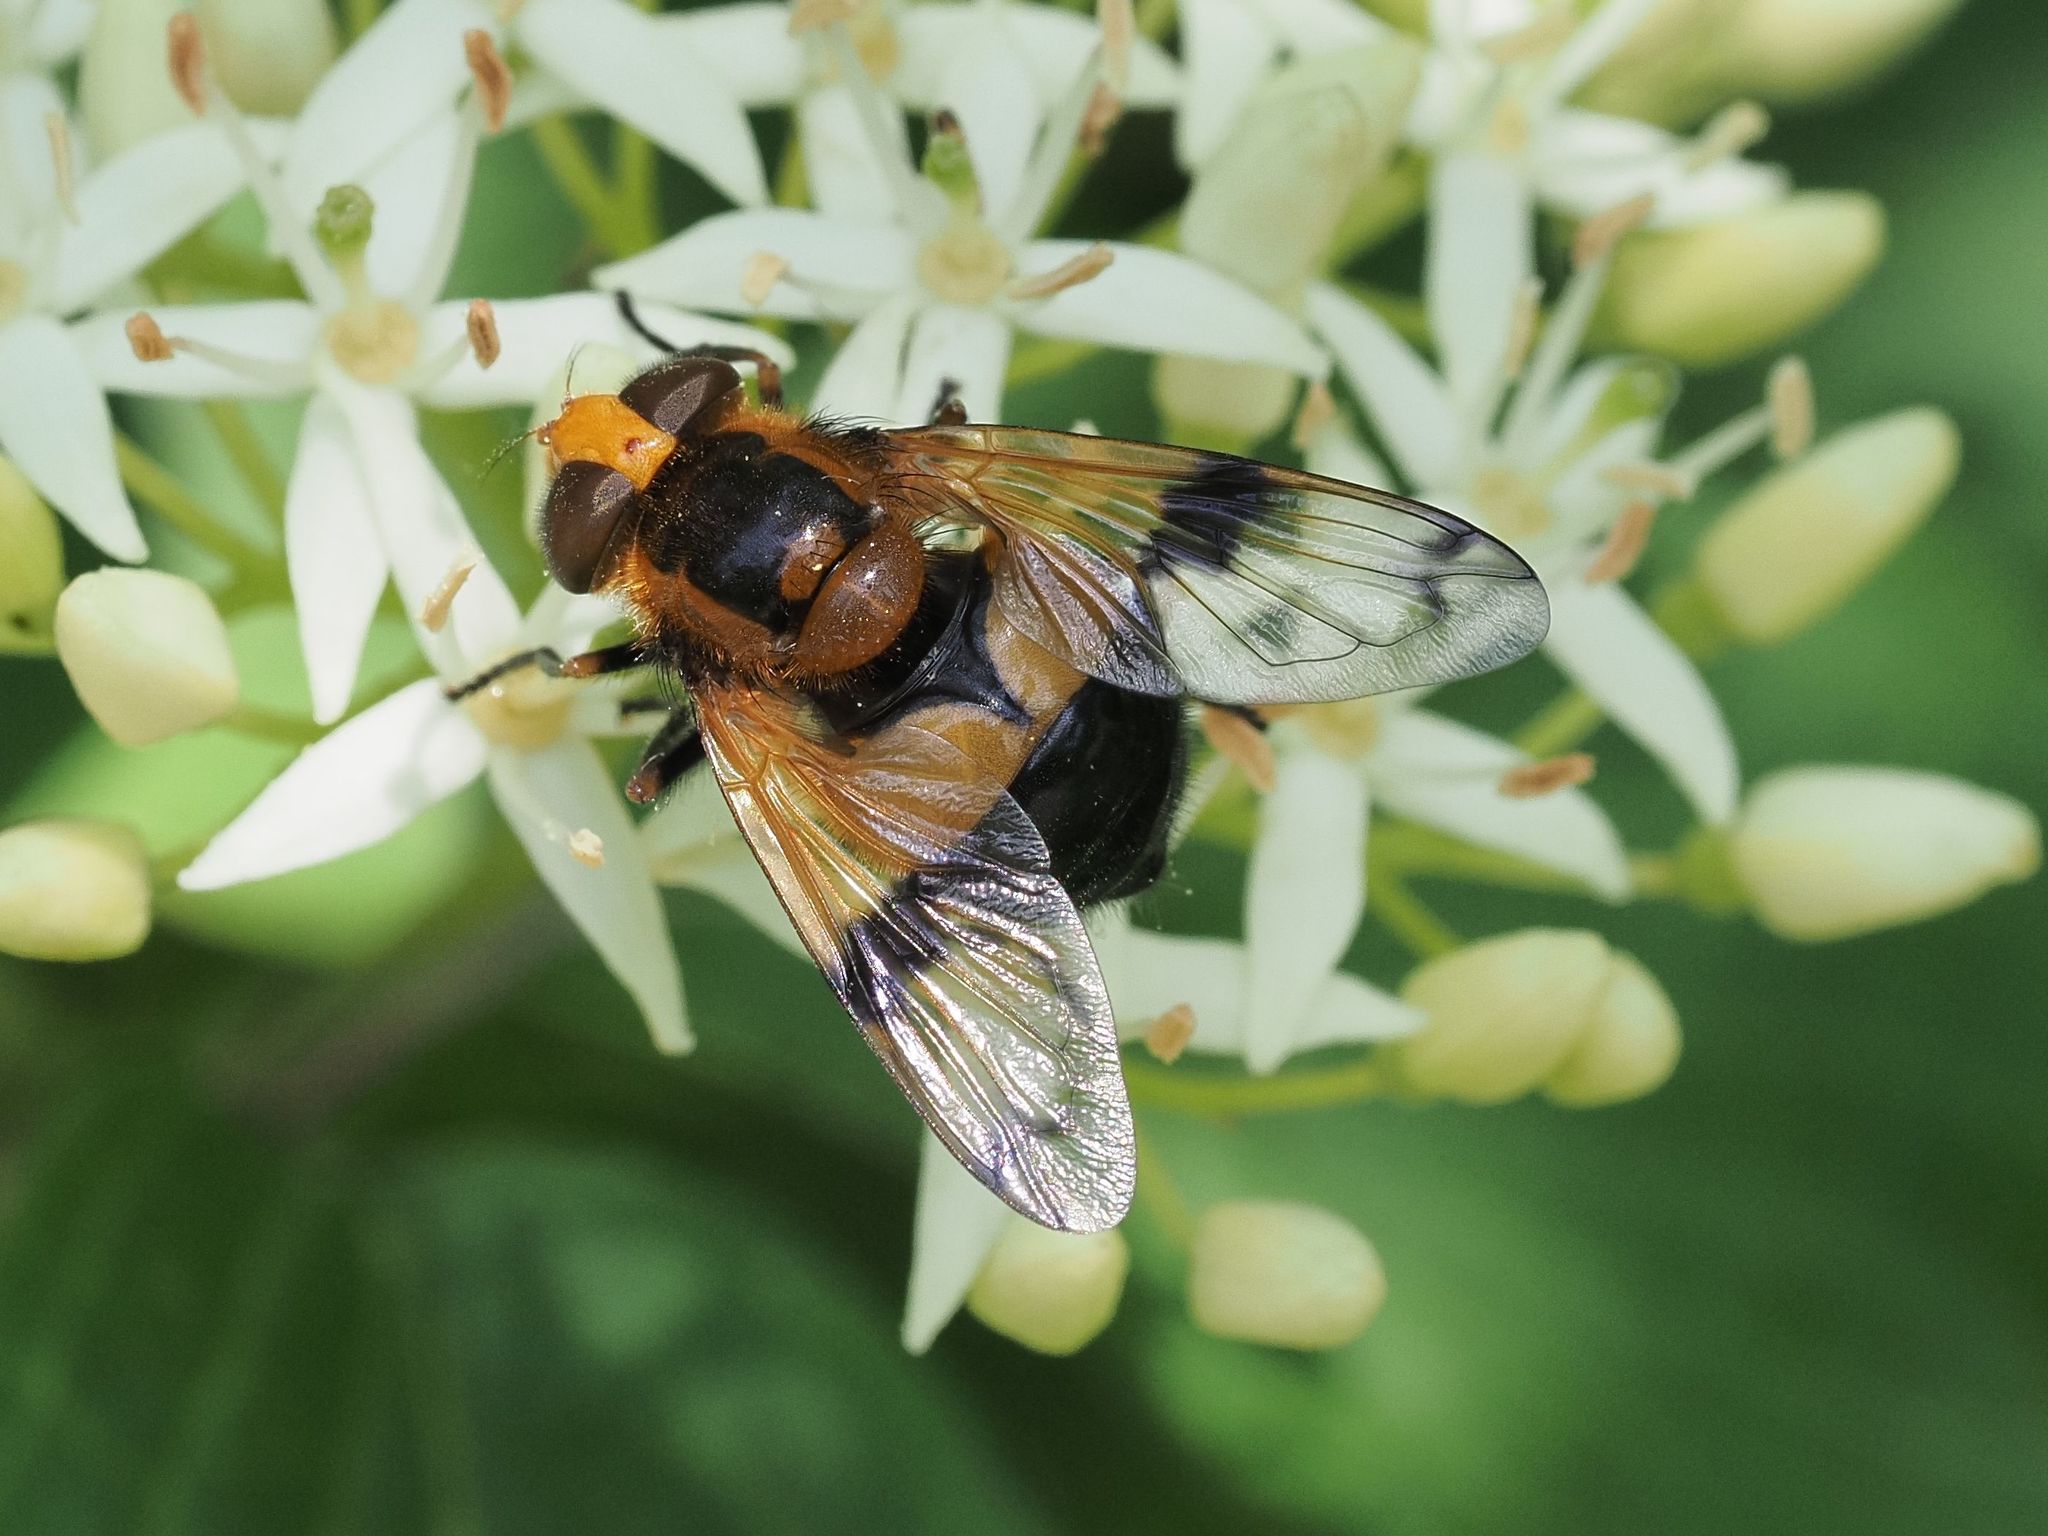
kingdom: Animalia
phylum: Arthropoda
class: Insecta
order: Diptera
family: Syrphidae
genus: Volucella
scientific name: Volucella inflata
